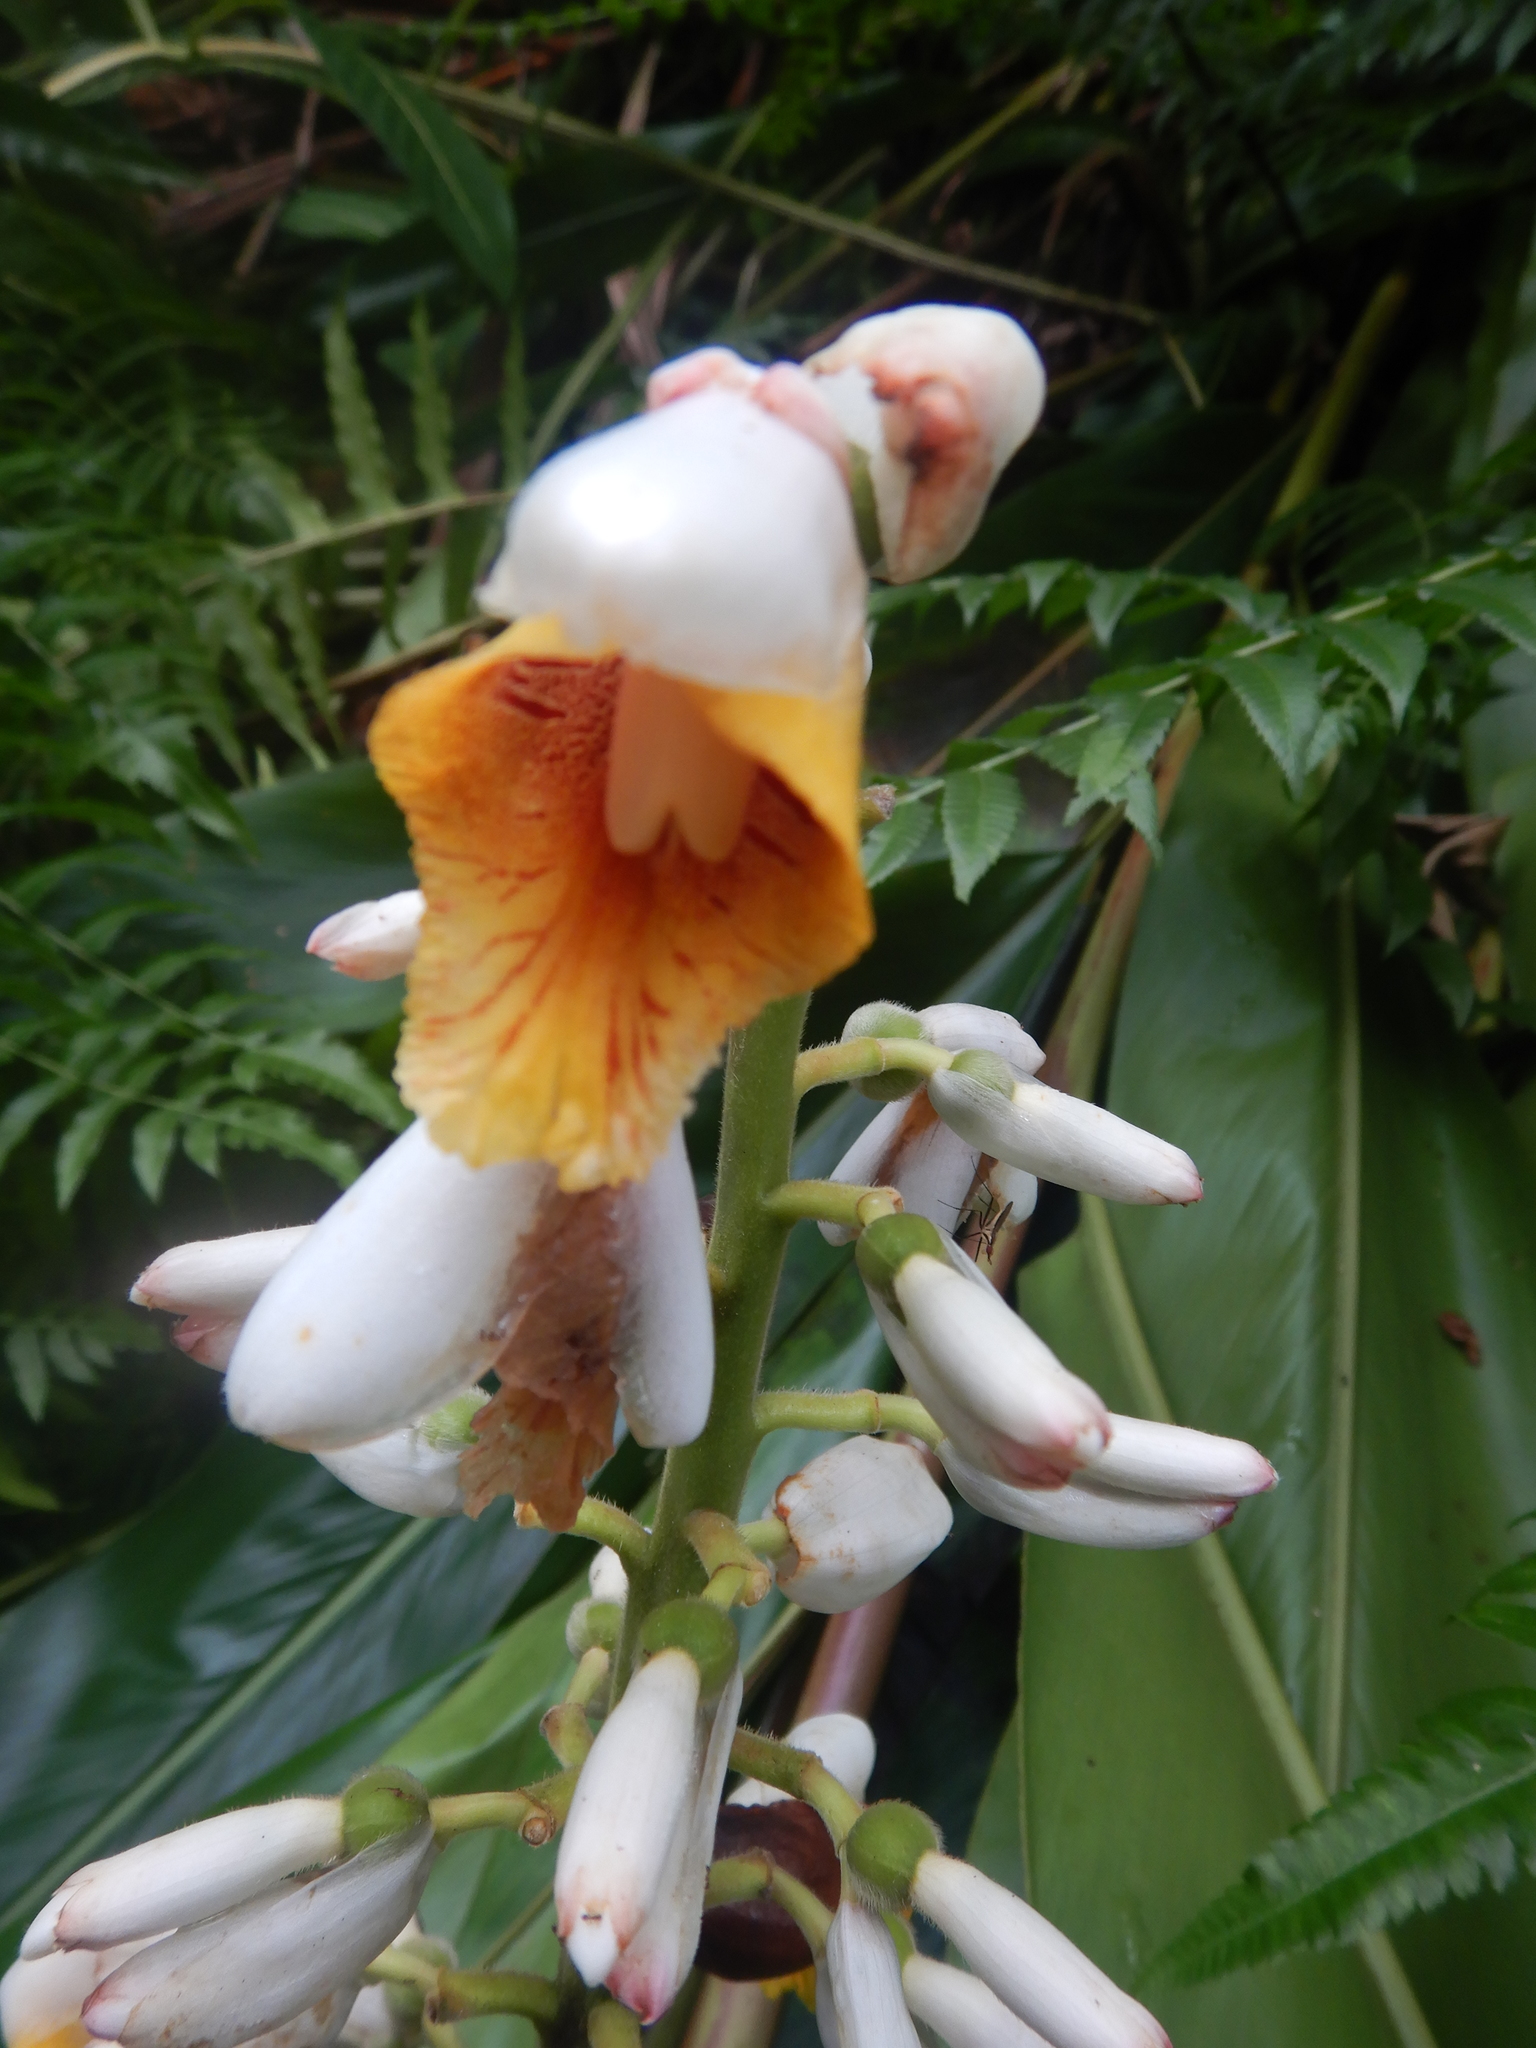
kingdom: Plantae
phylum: Tracheophyta
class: Liliopsida
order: Zingiberales
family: Zingiberaceae
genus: Alpinia
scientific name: Alpinia zerumbet
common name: Shellplant
